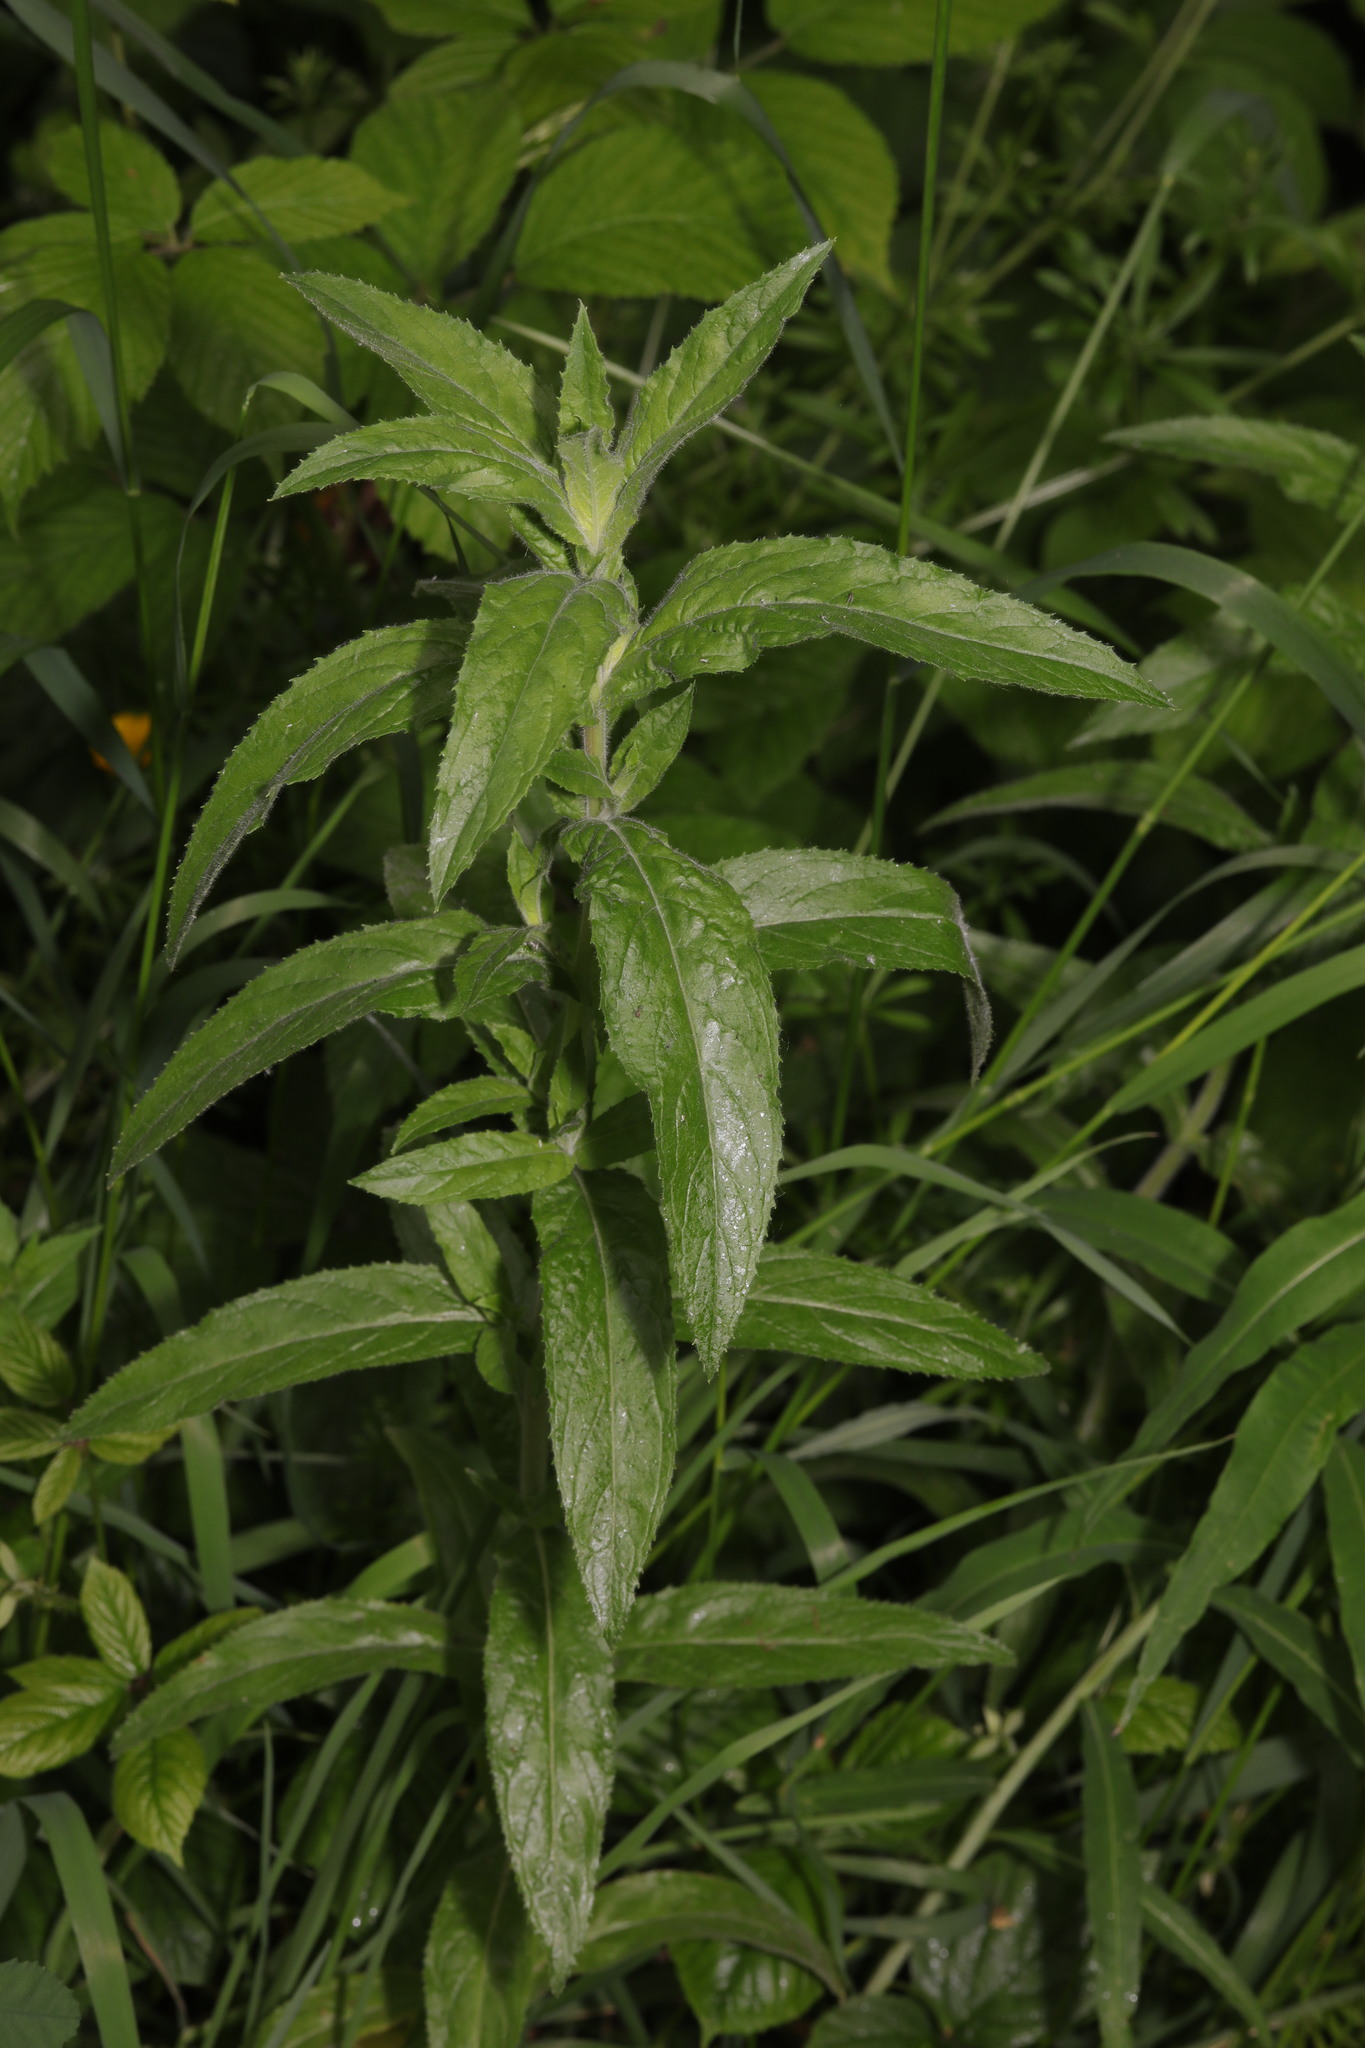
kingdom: Plantae
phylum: Tracheophyta
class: Magnoliopsida
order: Myrtales
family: Onagraceae
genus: Epilobium
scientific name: Epilobium hirsutum
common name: Great willowherb
